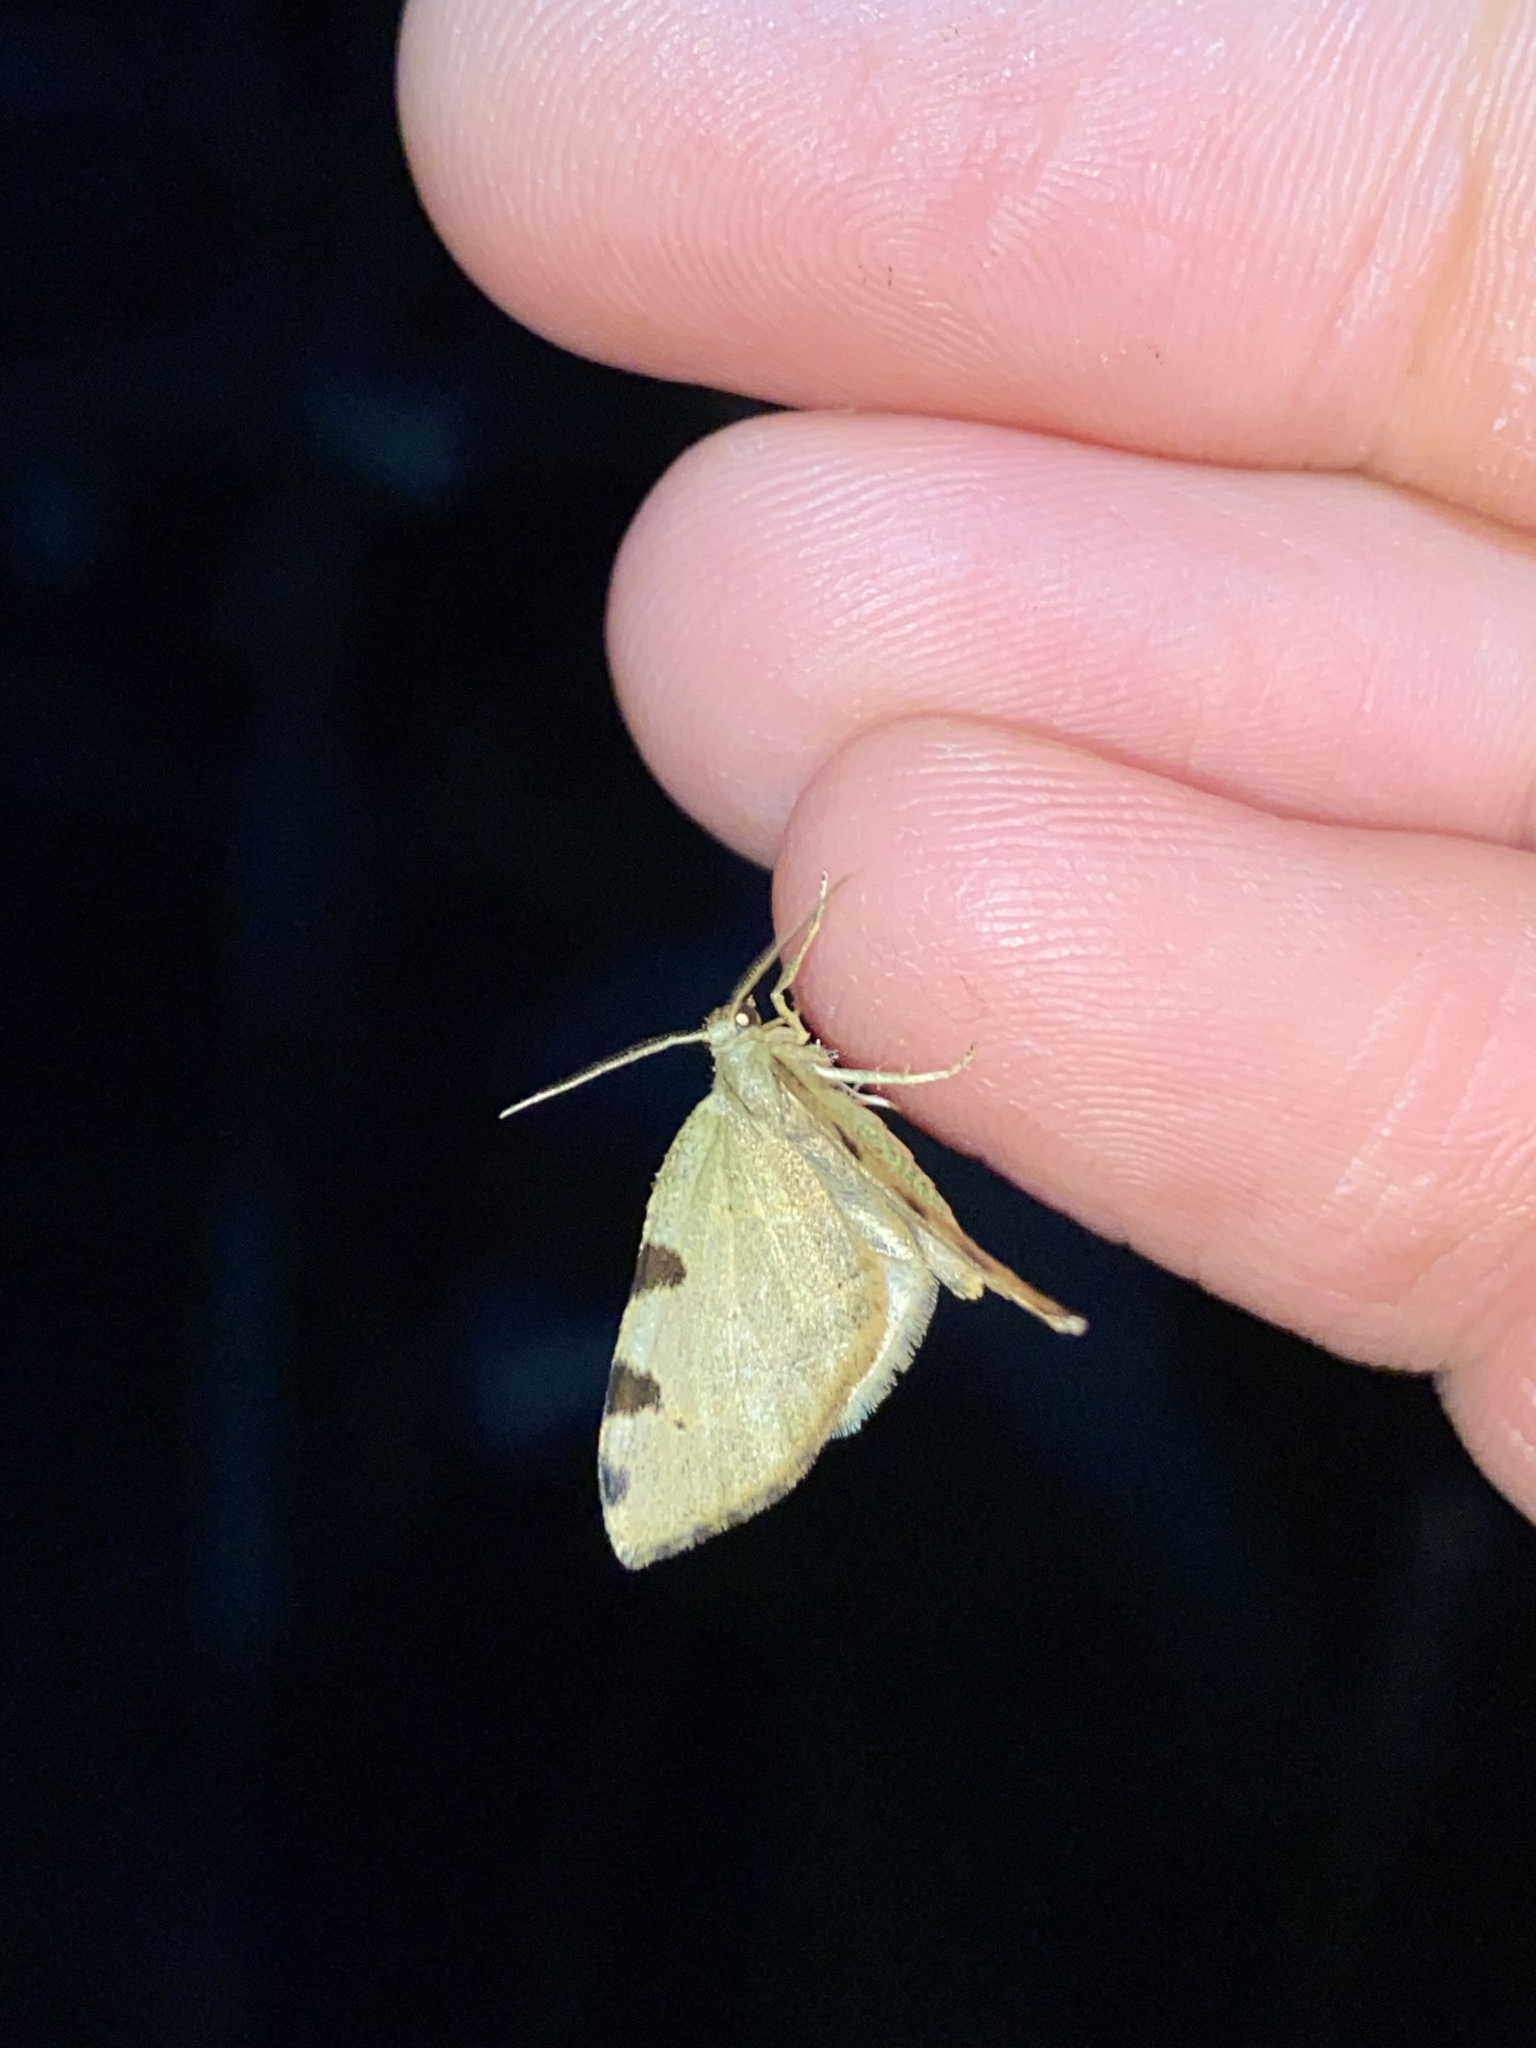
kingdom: Animalia
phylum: Arthropoda
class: Insecta
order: Lepidoptera
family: Geometridae
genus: Heterophleps
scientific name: Heterophleps triguttaria
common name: Three-spotted fillip
